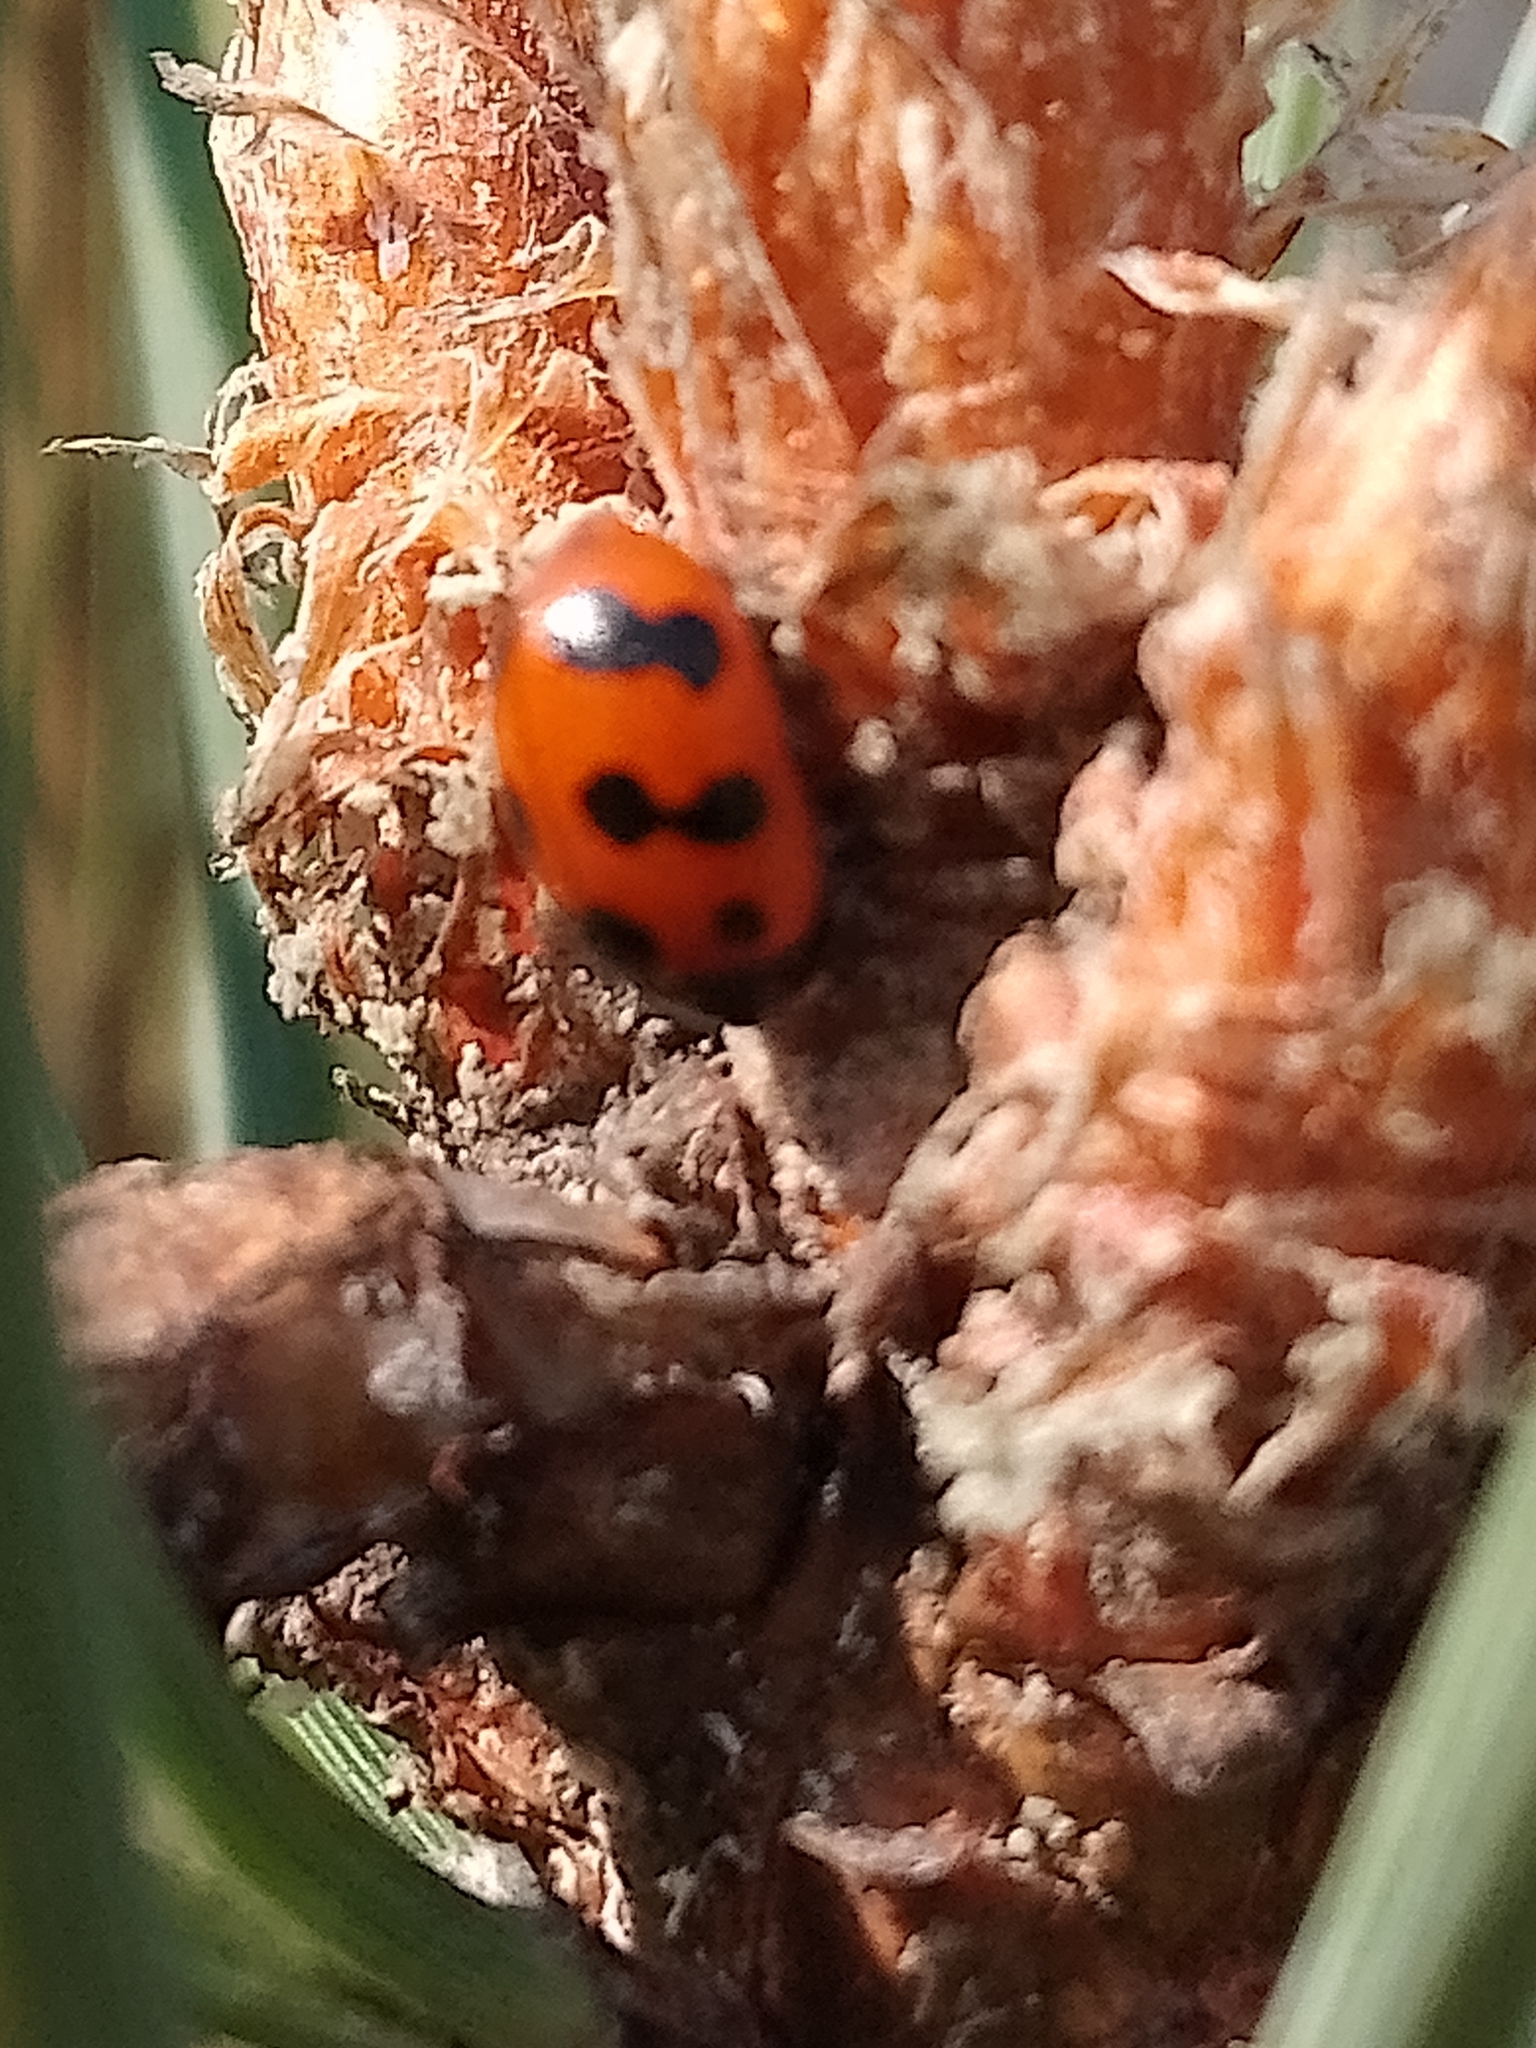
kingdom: Animalia
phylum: Arthropoda
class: Insecta
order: Coleoptera
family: Coccinellidae
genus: Coccinella
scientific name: Coccinella undecimpunctata
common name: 11-spot ladybird
